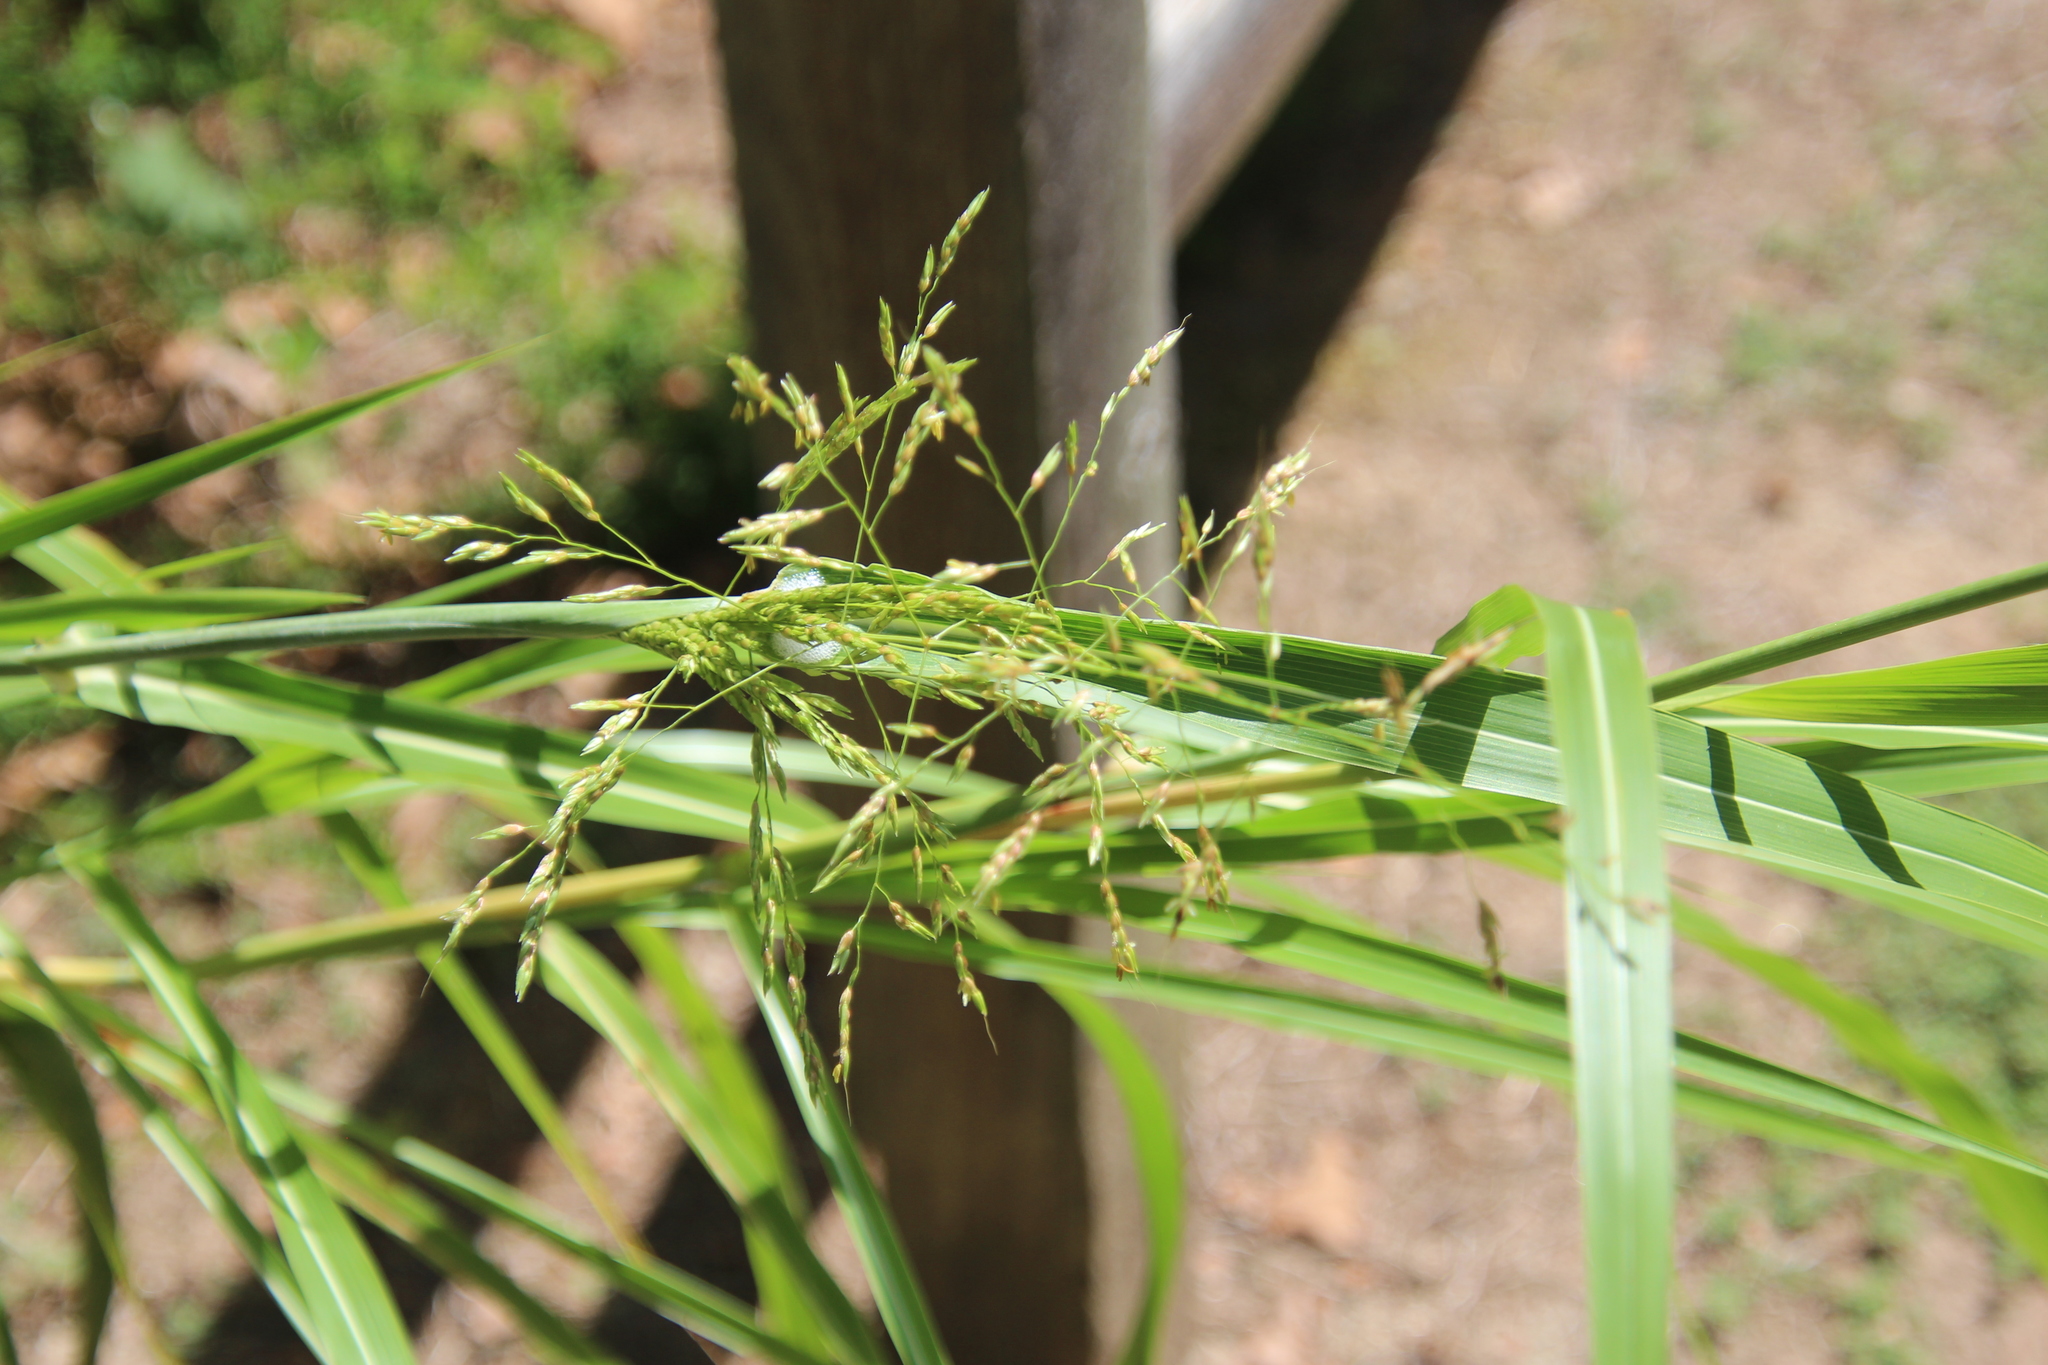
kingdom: Plantae
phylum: Tracheophyta
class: Liliopsida
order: Poales
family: Poaceae
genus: Leersia
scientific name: Leersia oryzoides
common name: Cut-grass
